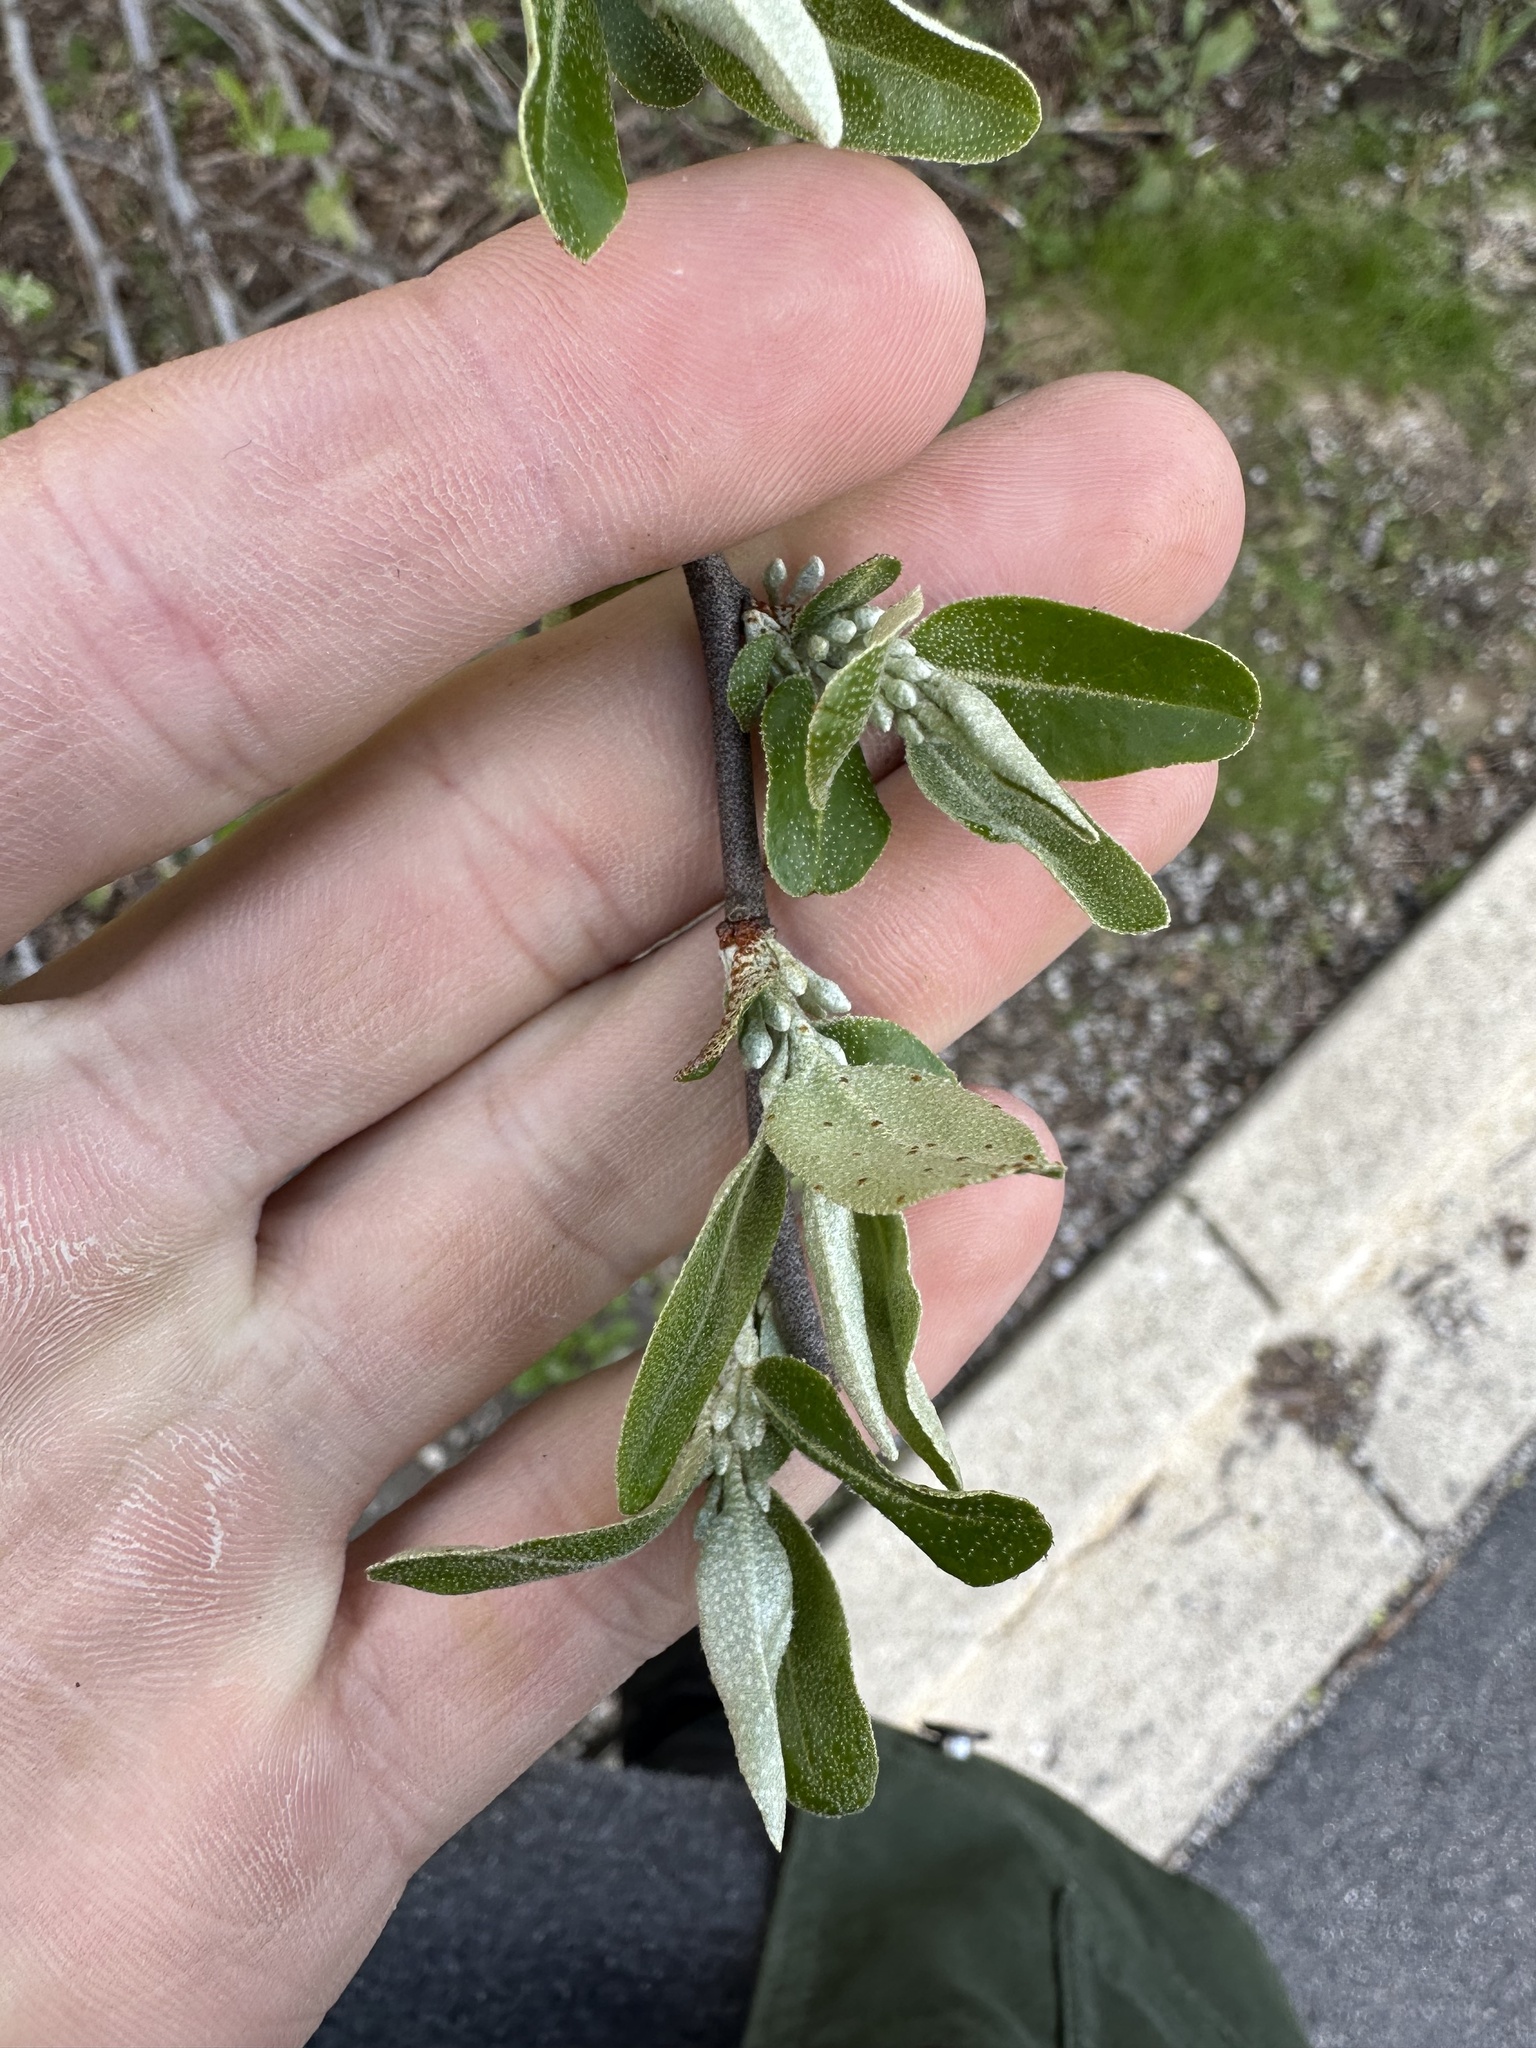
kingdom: Plantae
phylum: Tracheophyta
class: Magnoliopsida
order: Rosales
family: Elaeagnaceae
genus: Elaeagnus
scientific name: Elaeagnus umbellata
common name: Autumn olive
